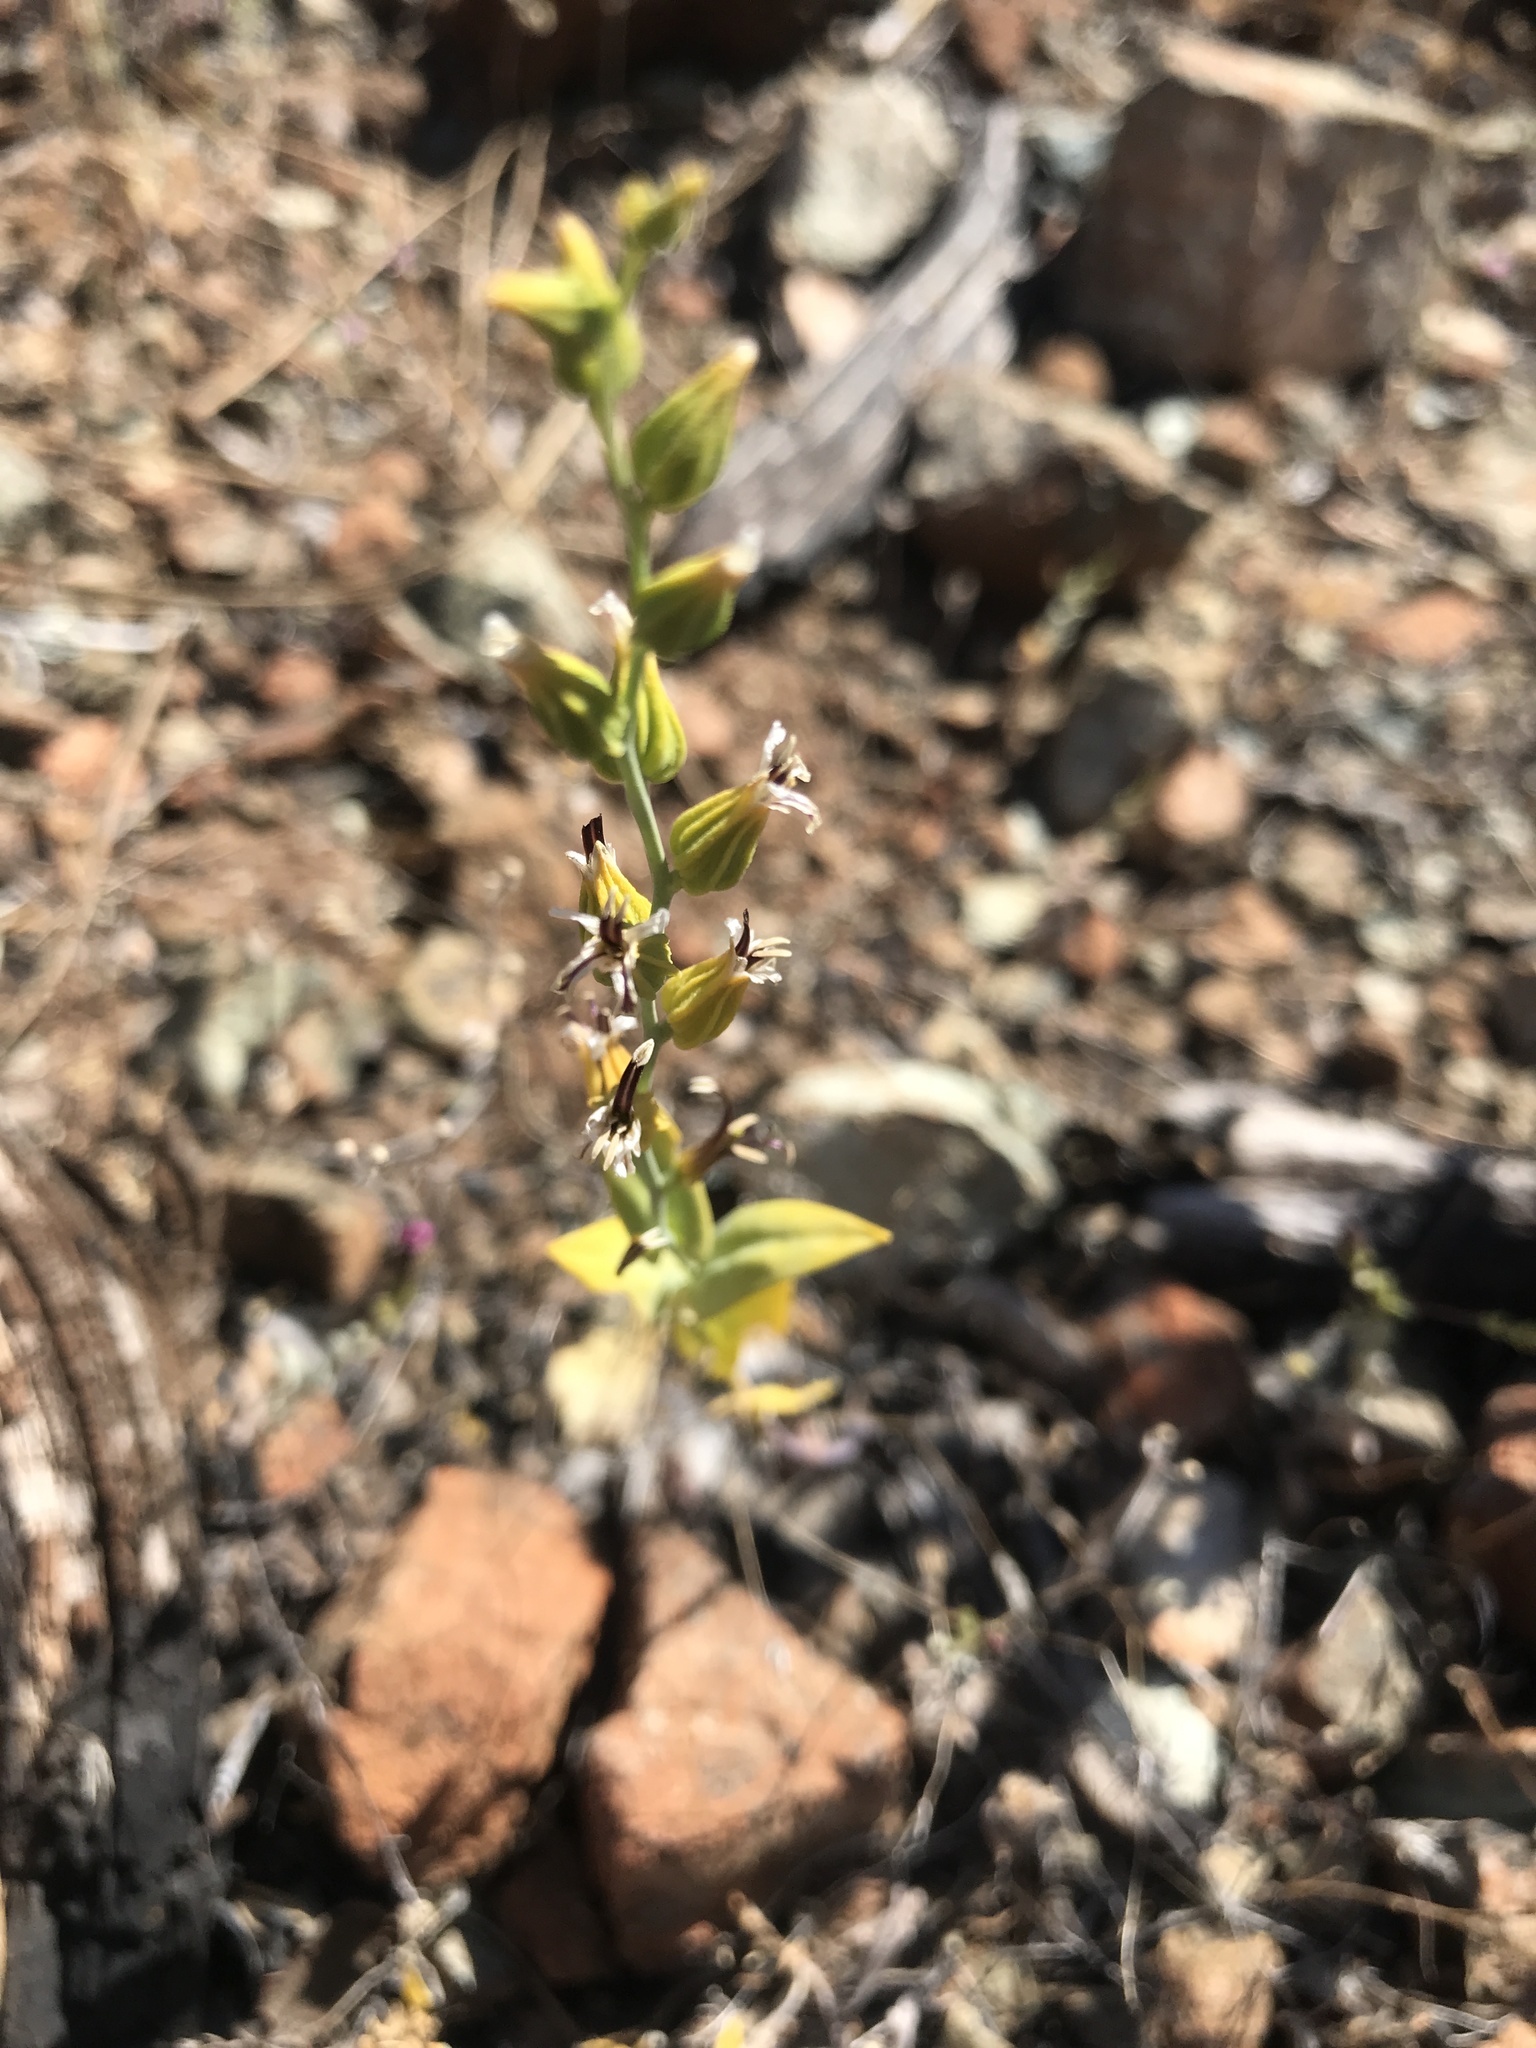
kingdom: Plantae
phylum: Tracheophyta
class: Magnoliopsida
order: Brassicales
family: Brassicaceae
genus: Streptanthus
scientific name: Streptanthus hesperidis
